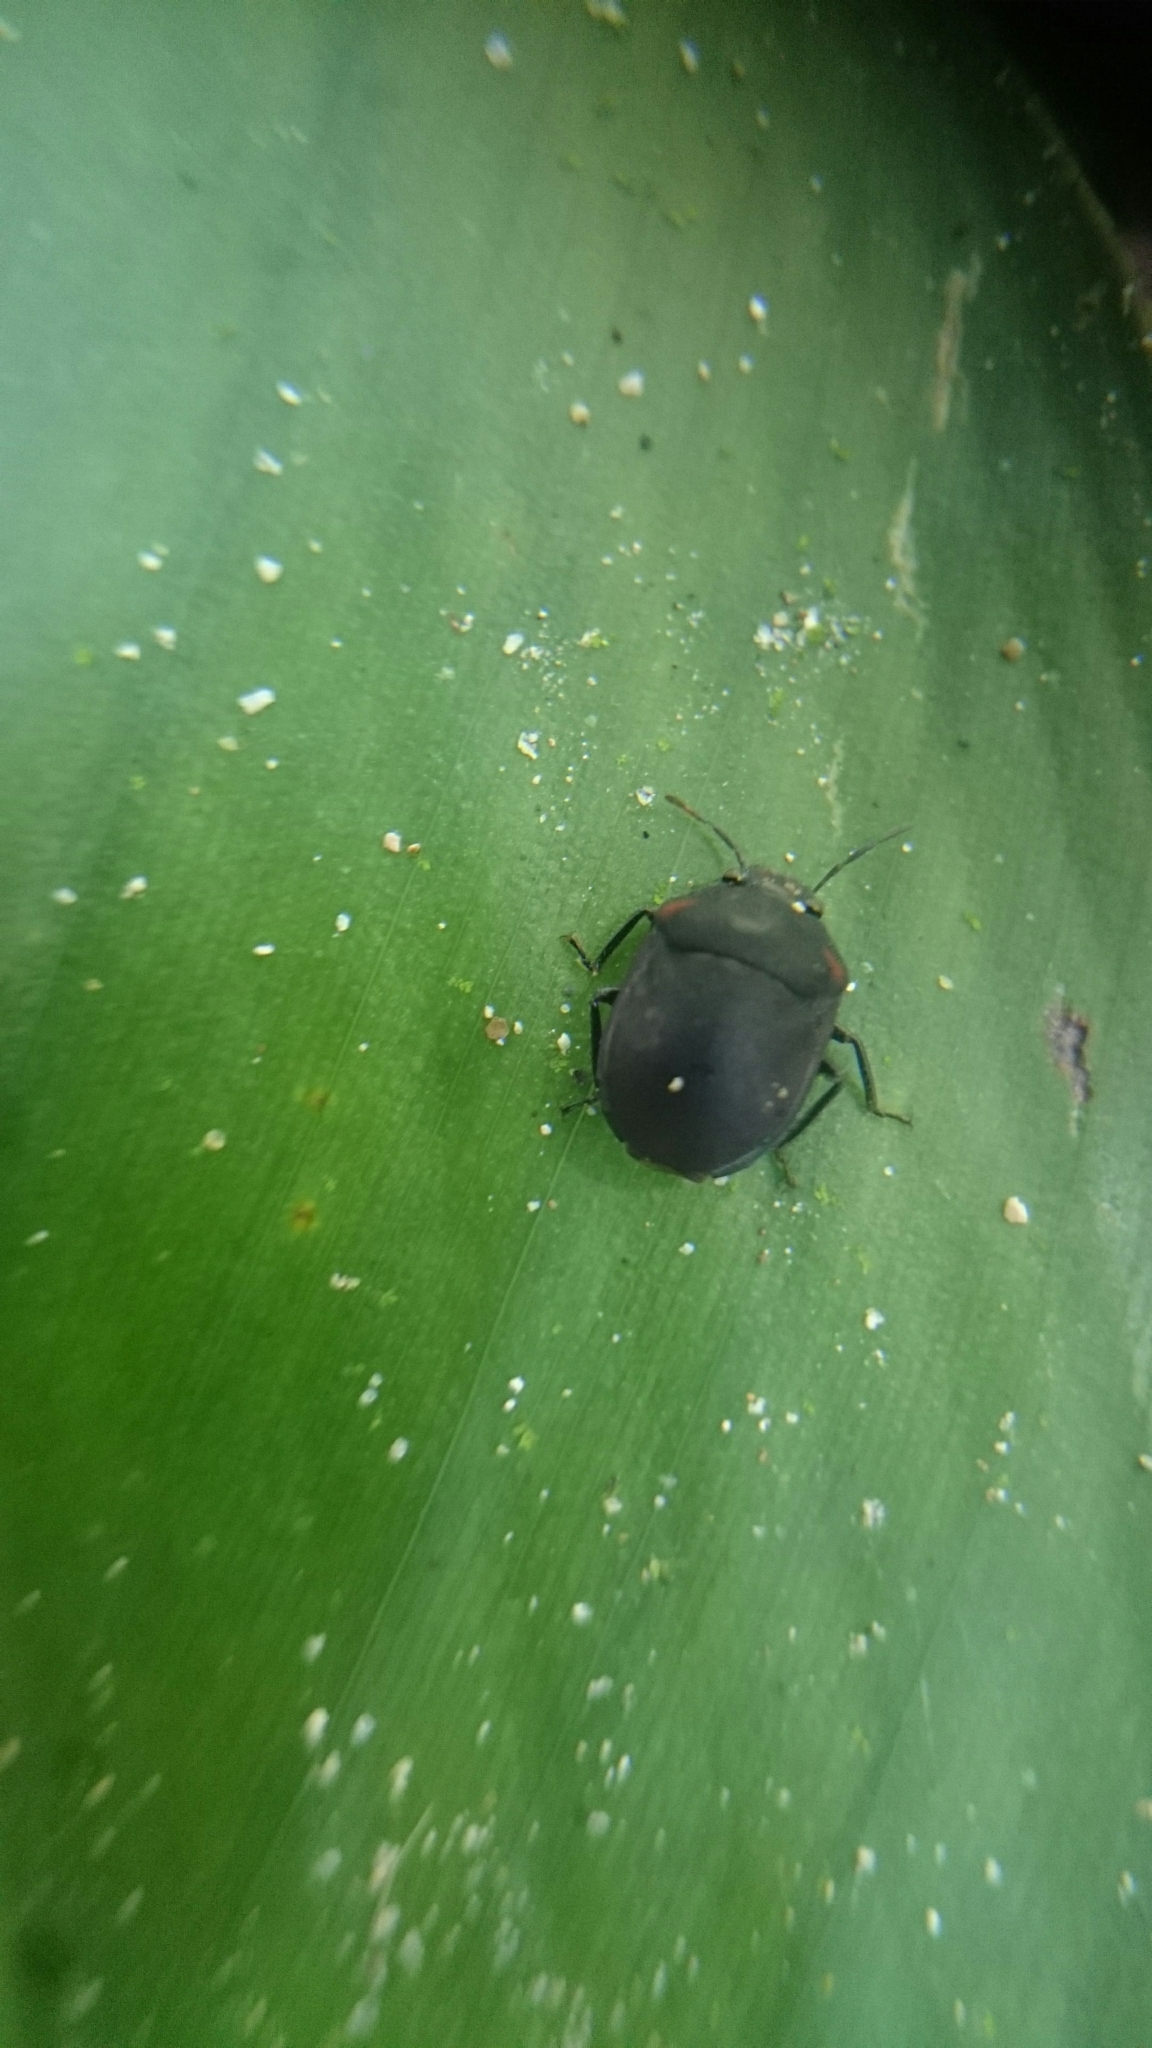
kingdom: Animalia
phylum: Arthropoda
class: Insecta
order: Hemiptera
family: Scutelleridae
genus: Coptochilus
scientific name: Coptochilus
